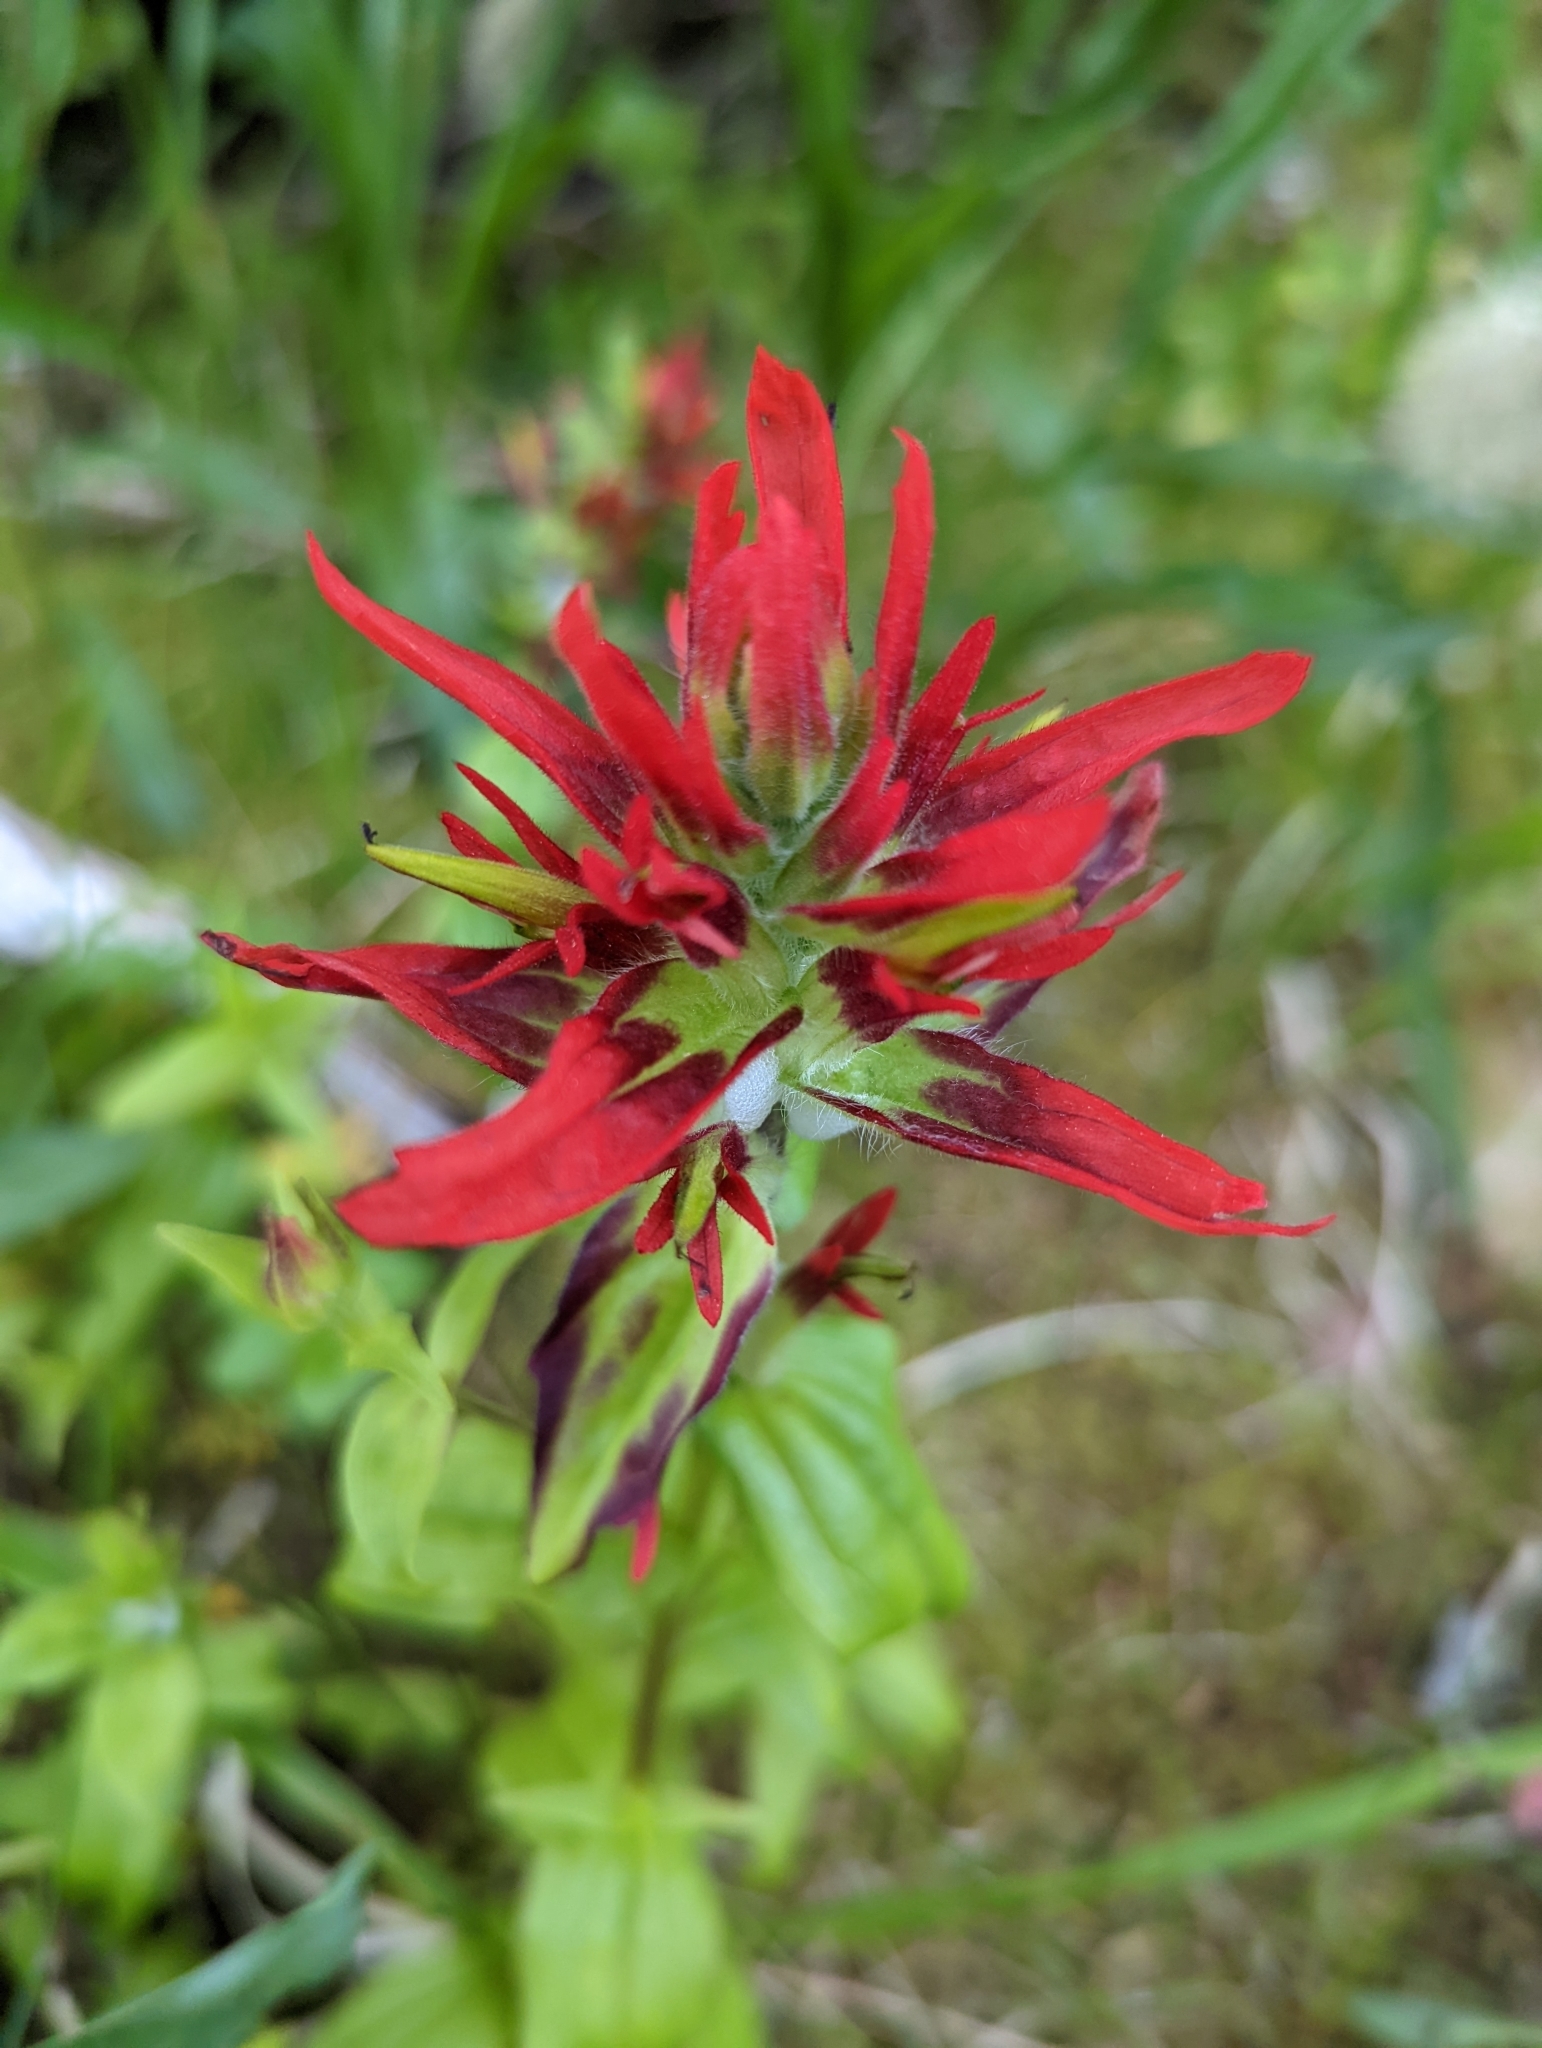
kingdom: Plantae
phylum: Tracheophyta
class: Magnoliopsida
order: Lamiales
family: Orobanchaceae
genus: Castilleja
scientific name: Castilleja miniata
